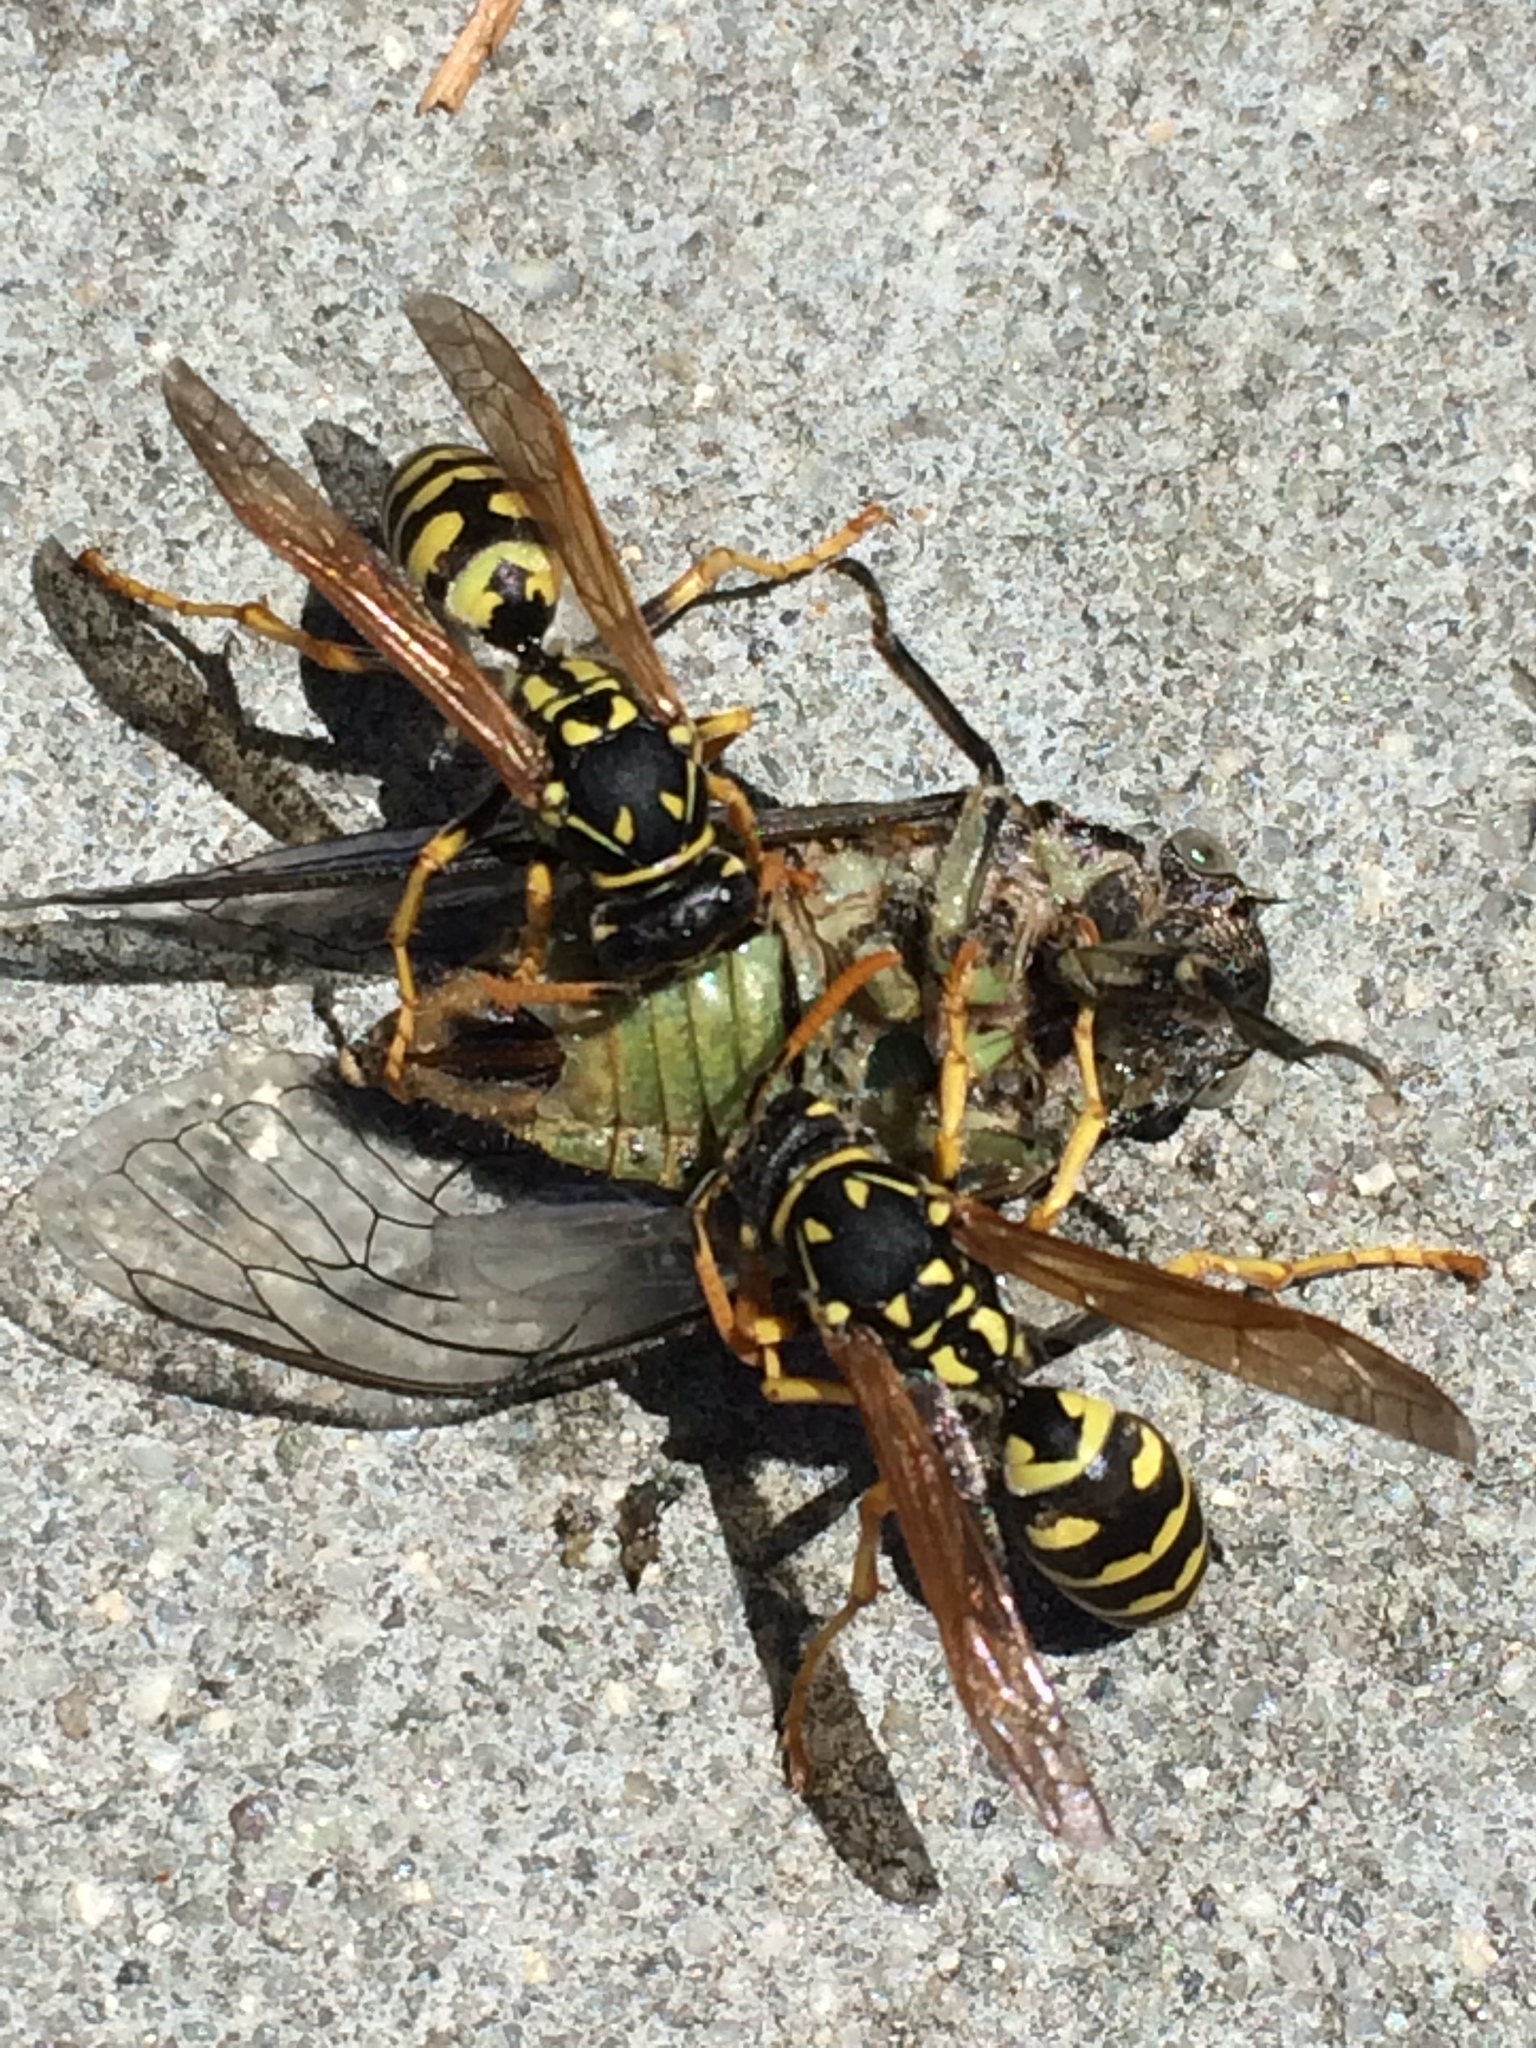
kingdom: Animalia
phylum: Arthropoda
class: Insecta
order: Hymenoptera
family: Eumenidae
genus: Polistes
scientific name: Polistes dominula
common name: Paper wasp
